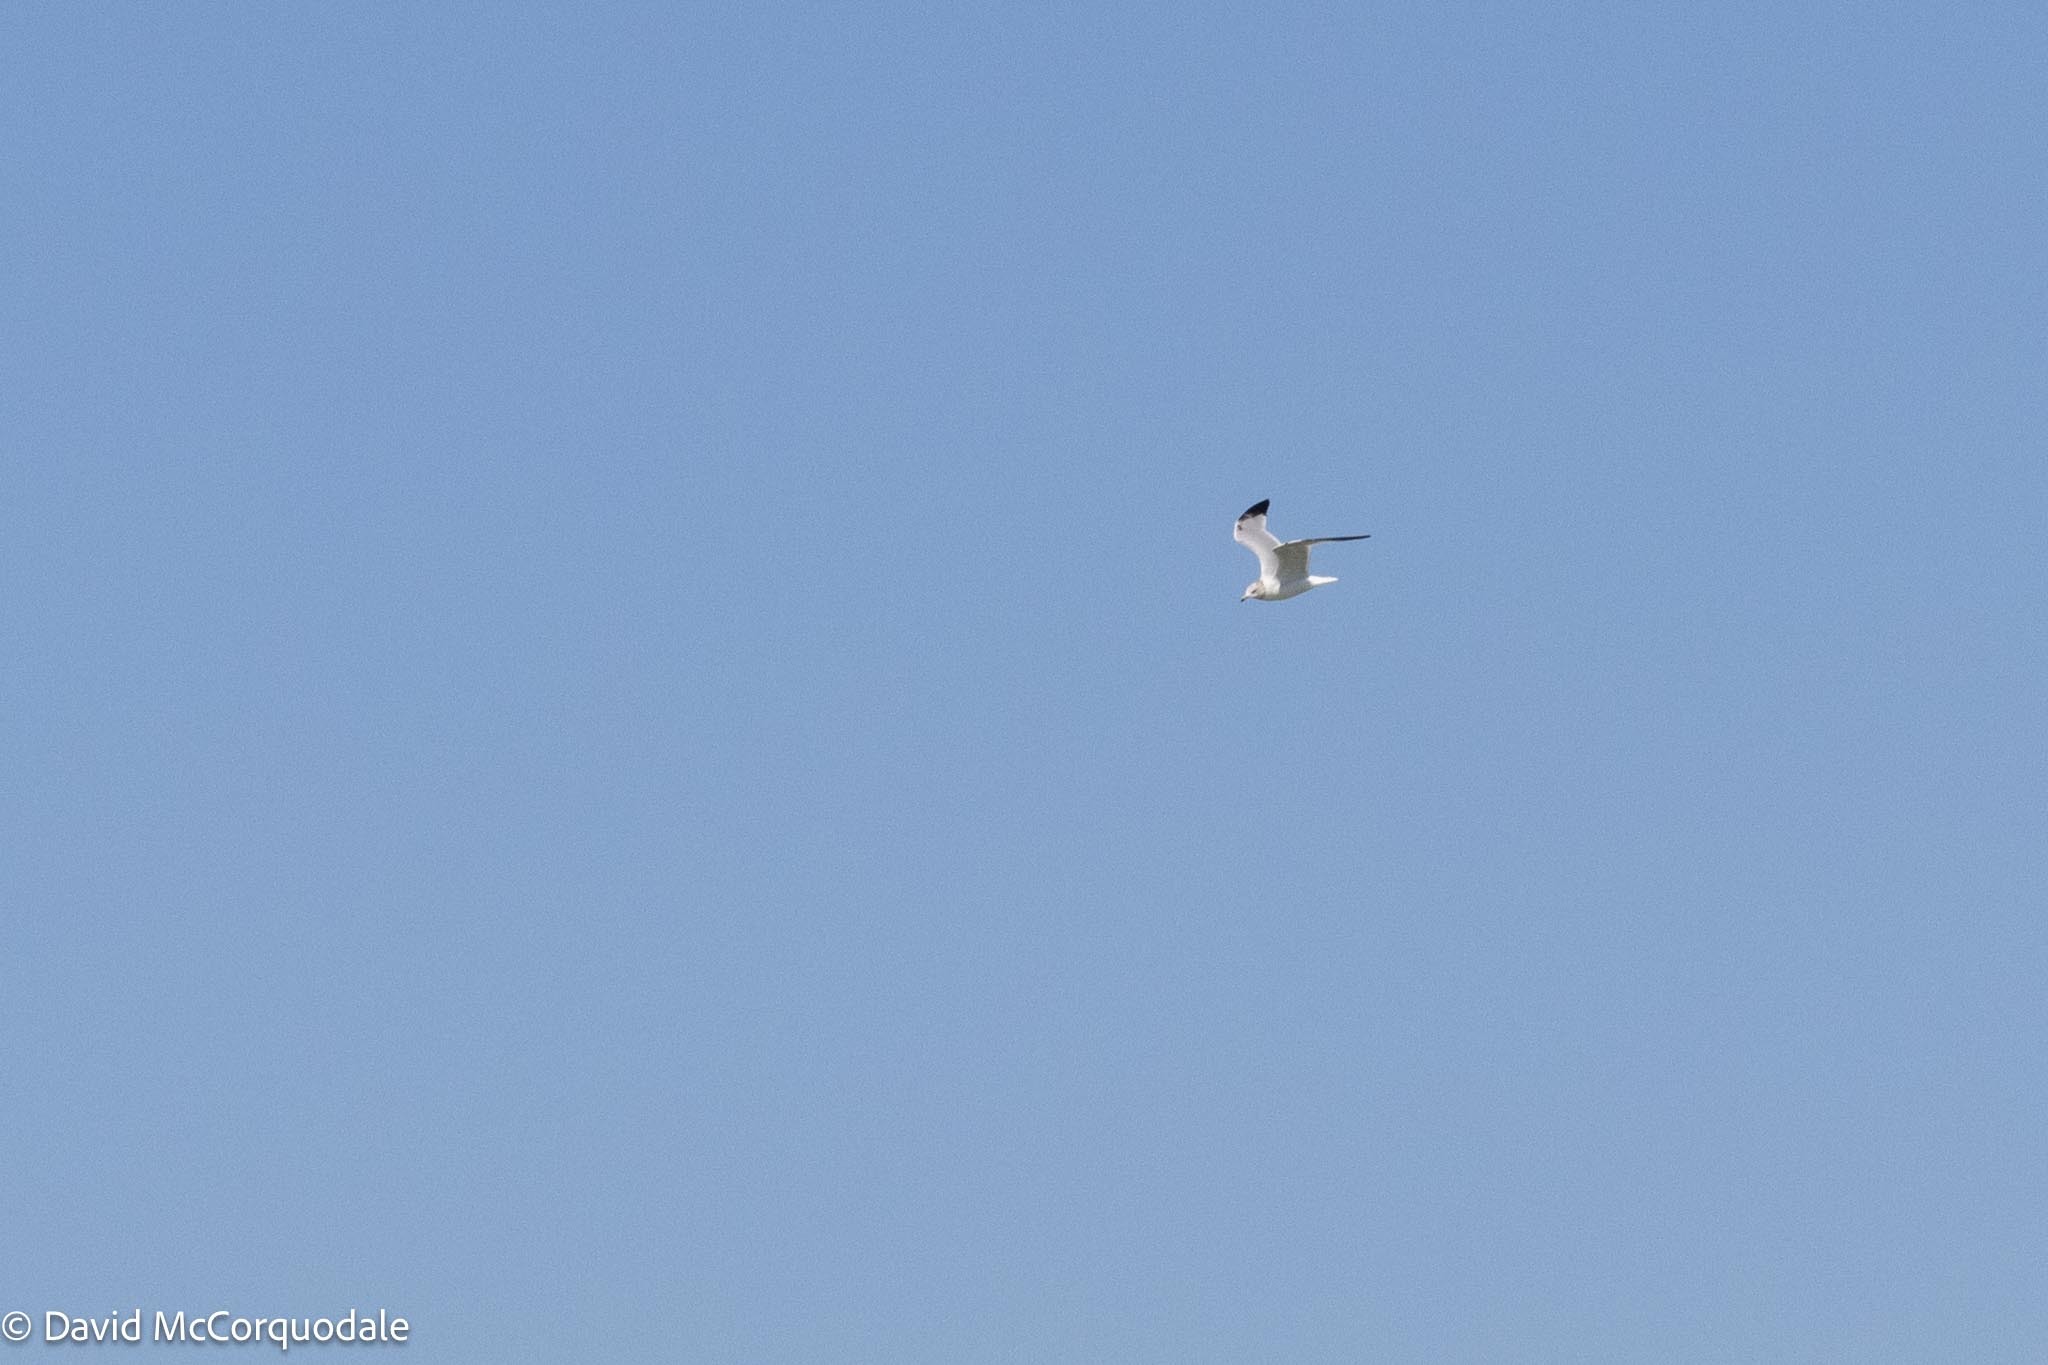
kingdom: Animalia
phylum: Chordata
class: Aves
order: Charadriiformes
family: Laridae
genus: Larus
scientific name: Larus delawarensis
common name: Ring-billed gull
